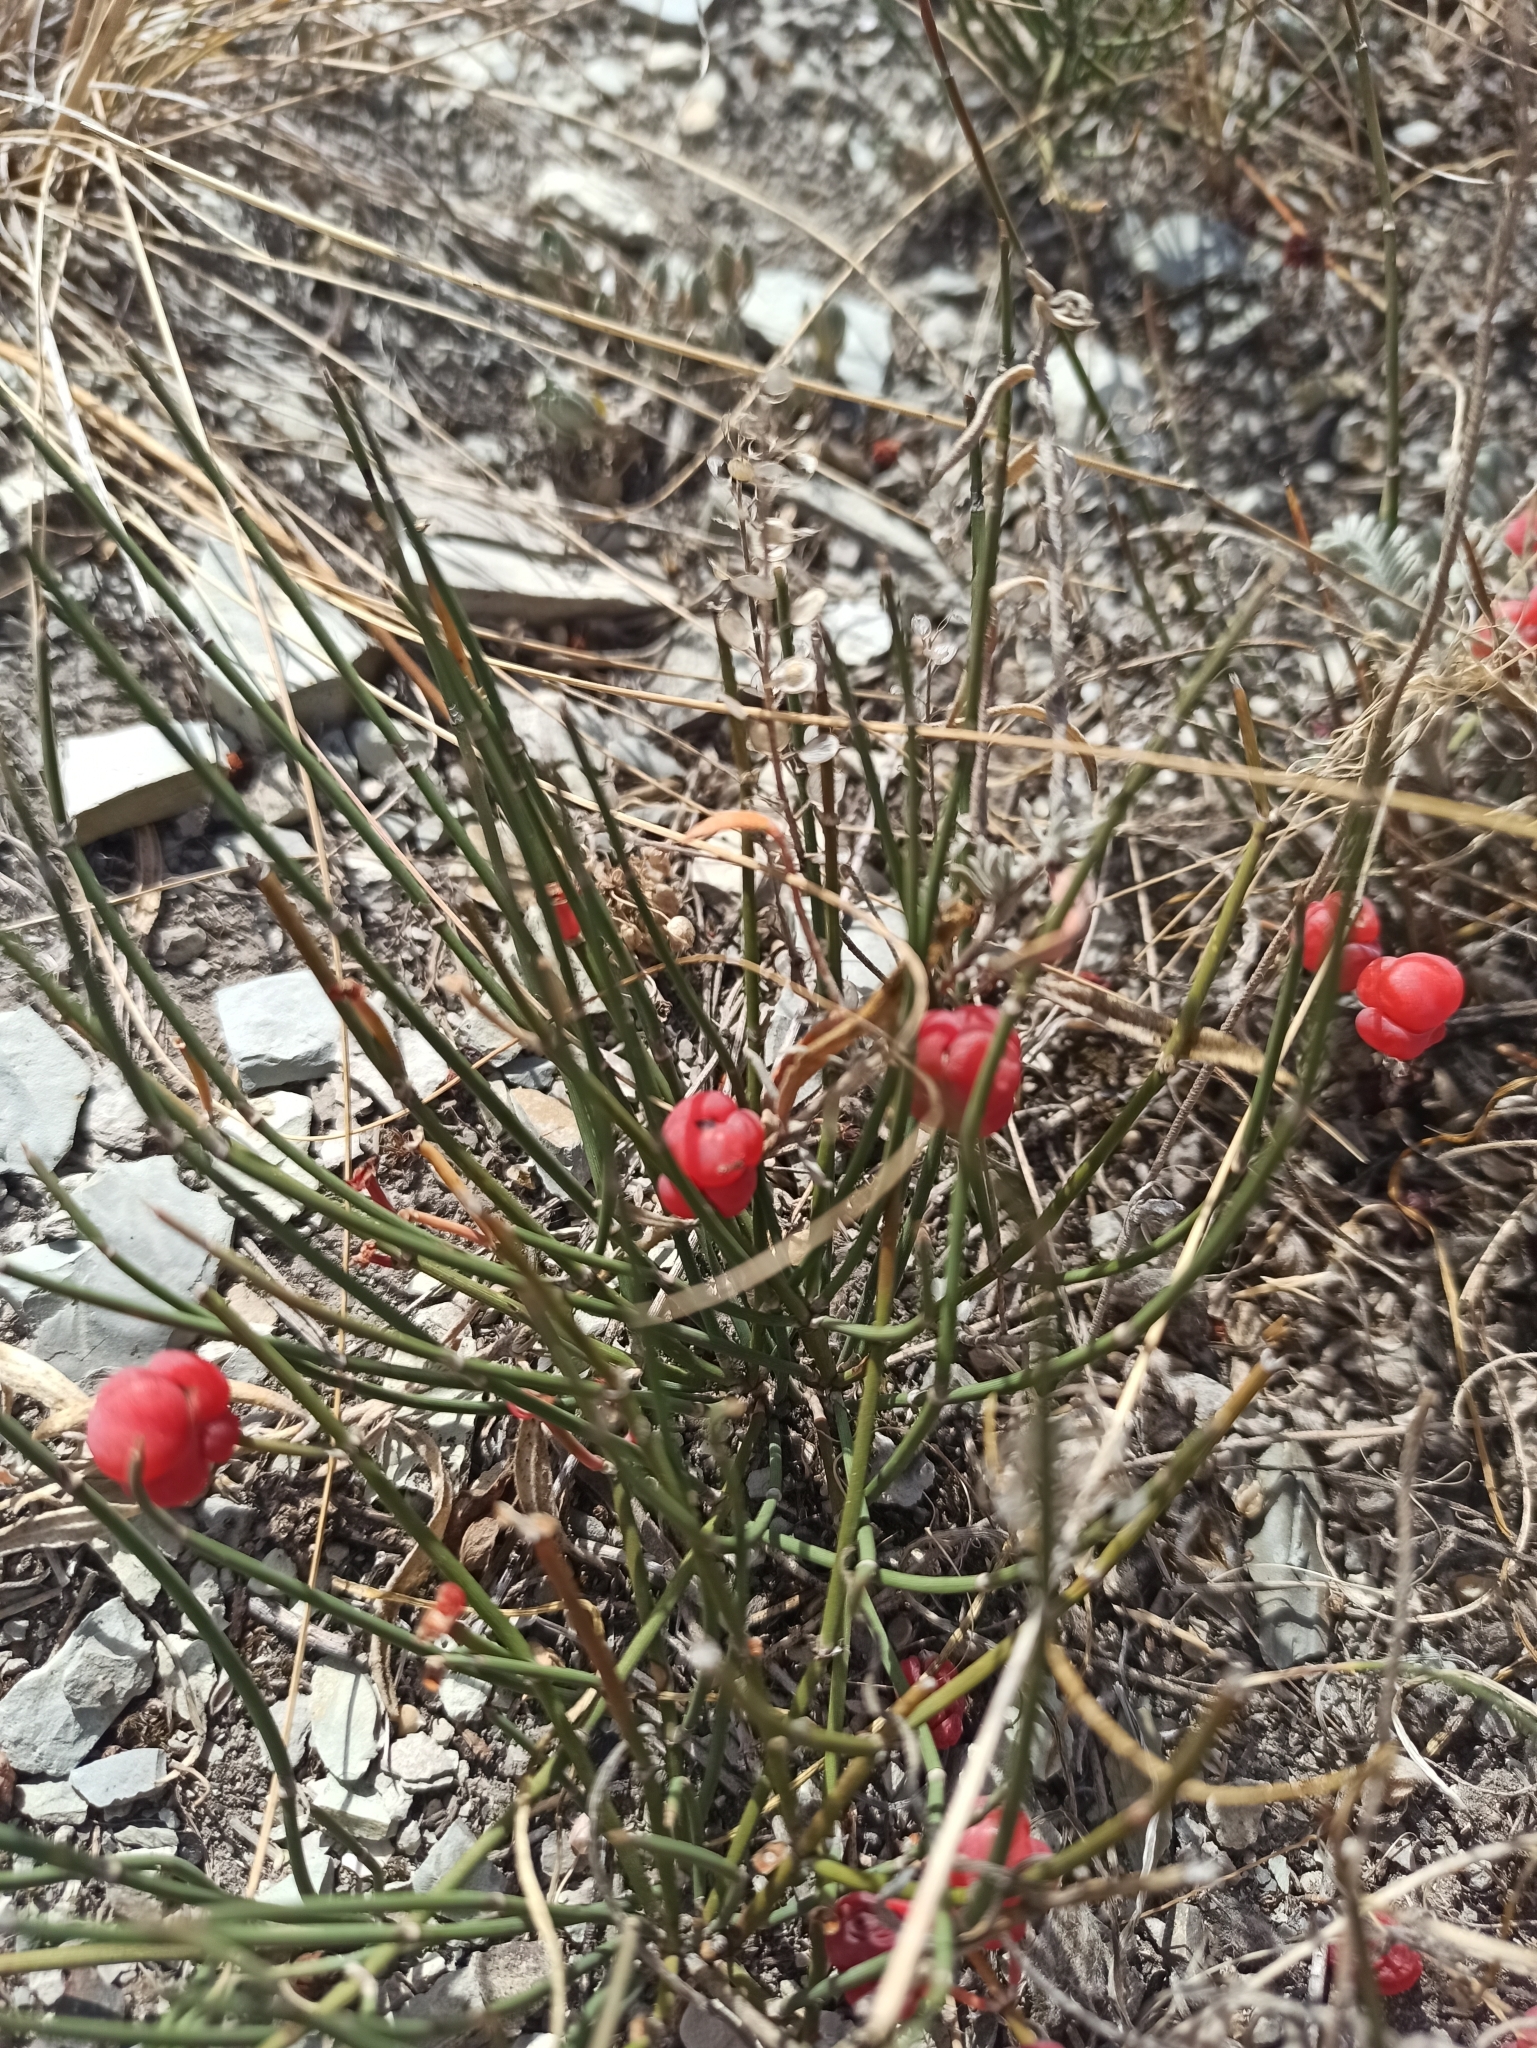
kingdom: Plantae
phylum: Tracheophyta
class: Gnetopsida
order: Ephedrales
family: Ephedraceae
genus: Ephedra
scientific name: Ephedra distachya
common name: Sea grape
